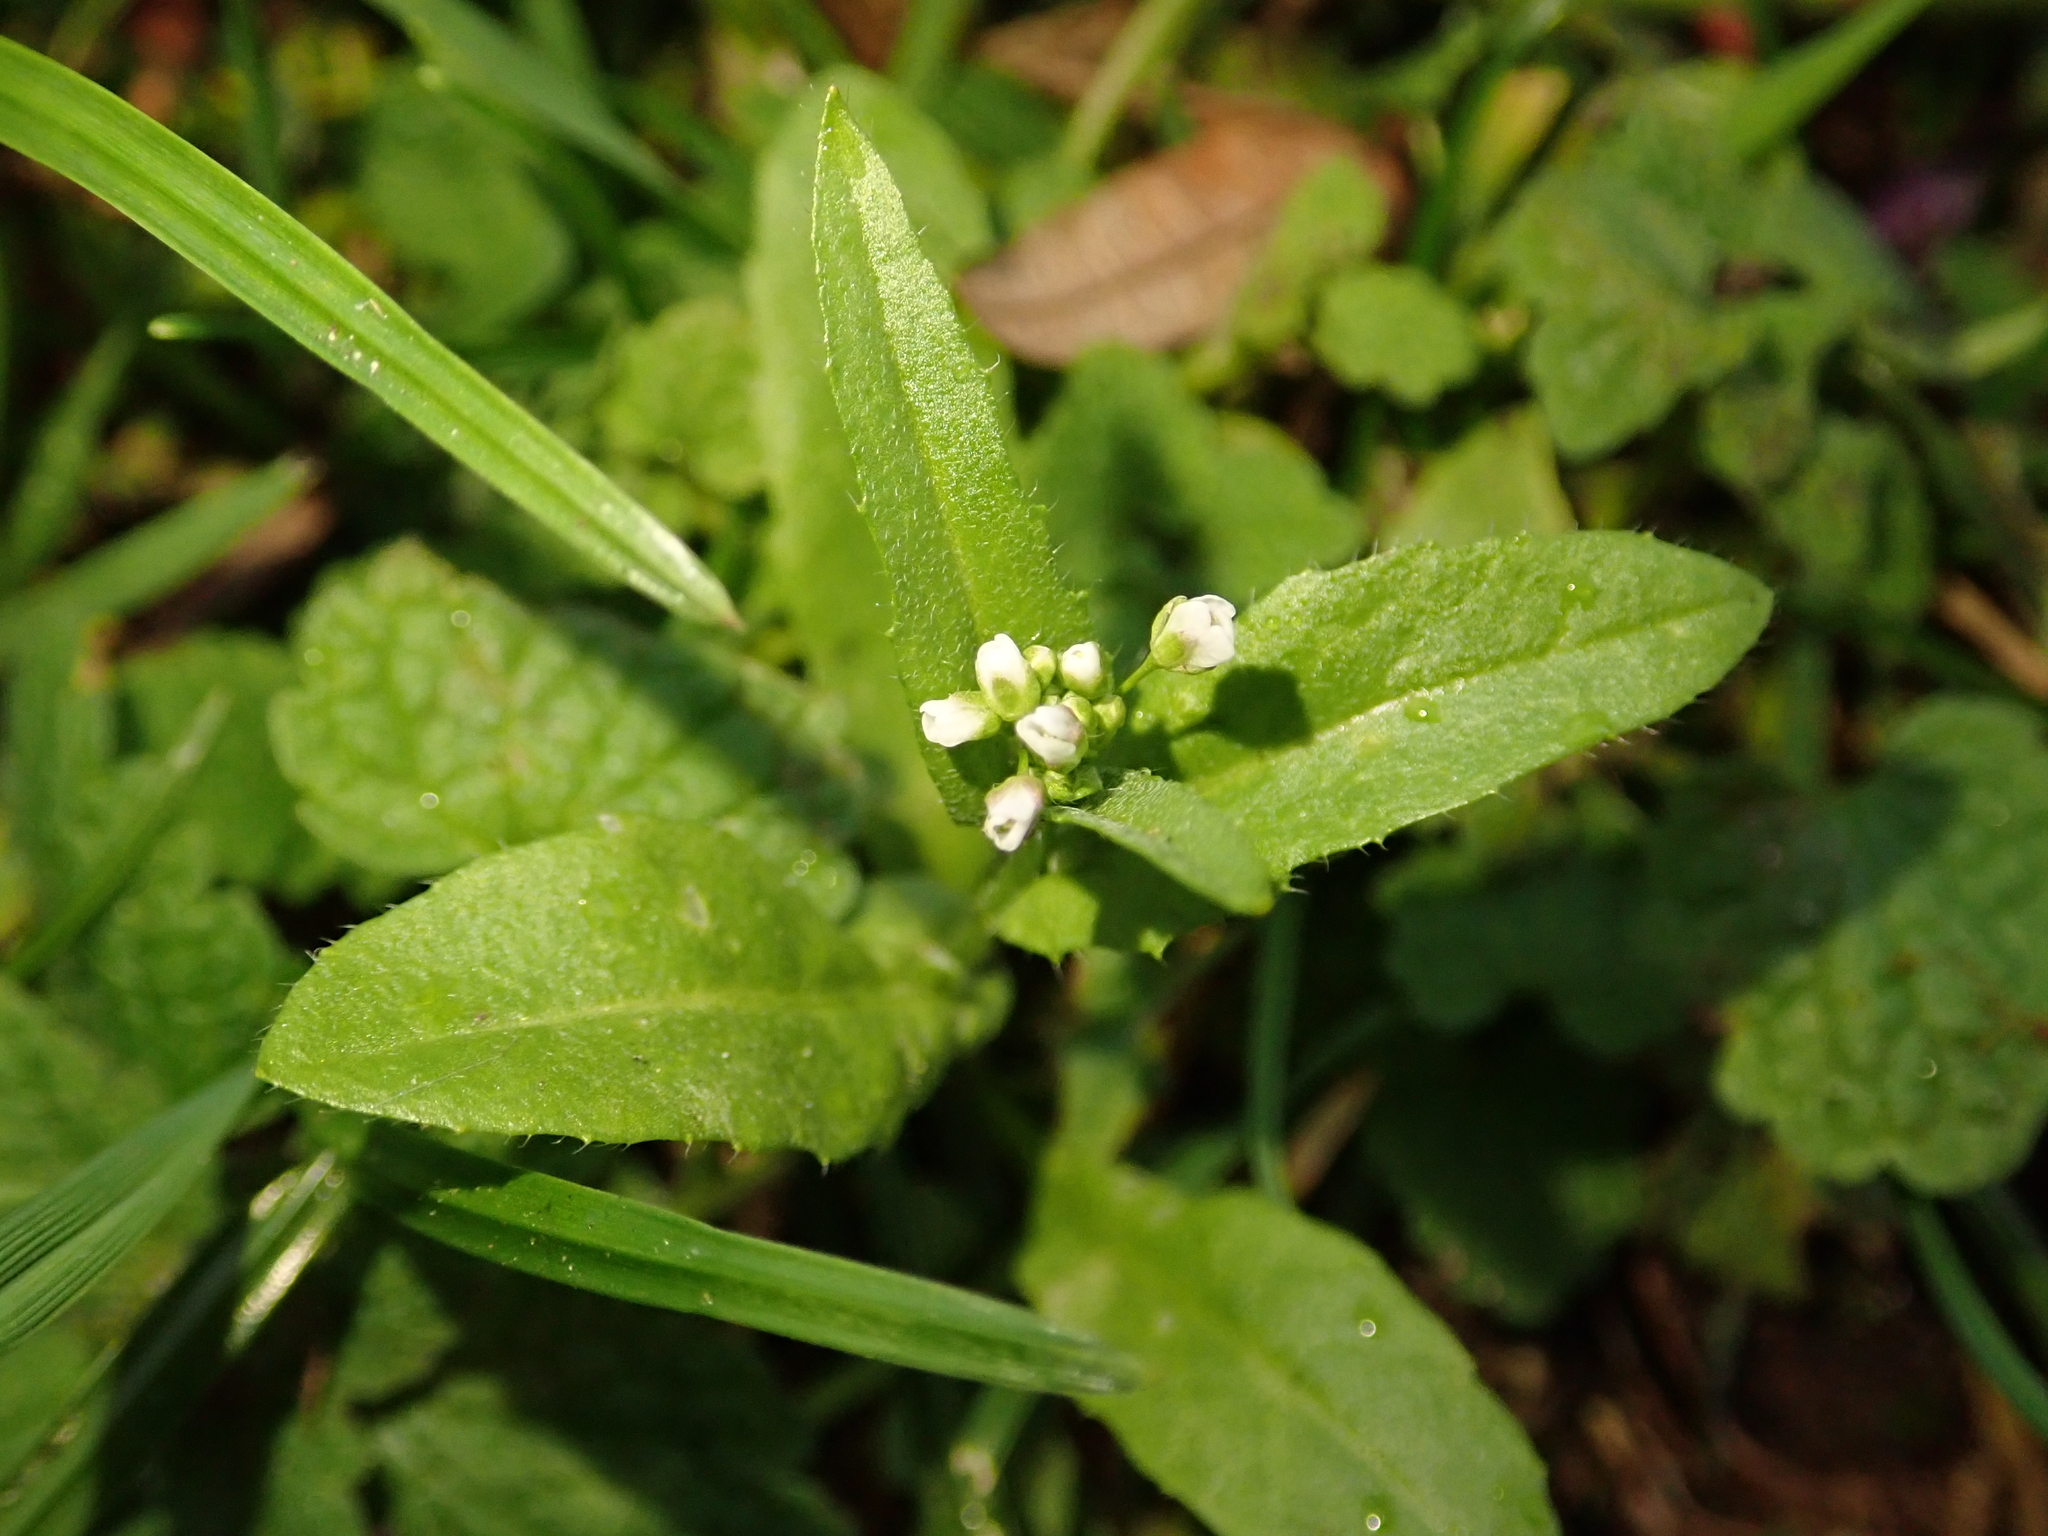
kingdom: Plantae
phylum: Tracheophyta
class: Magnoliopsida
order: Brassicales
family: Brassicaceae
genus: Capsella
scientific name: Capsella bursa-pastoris
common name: Shepherd's purse
